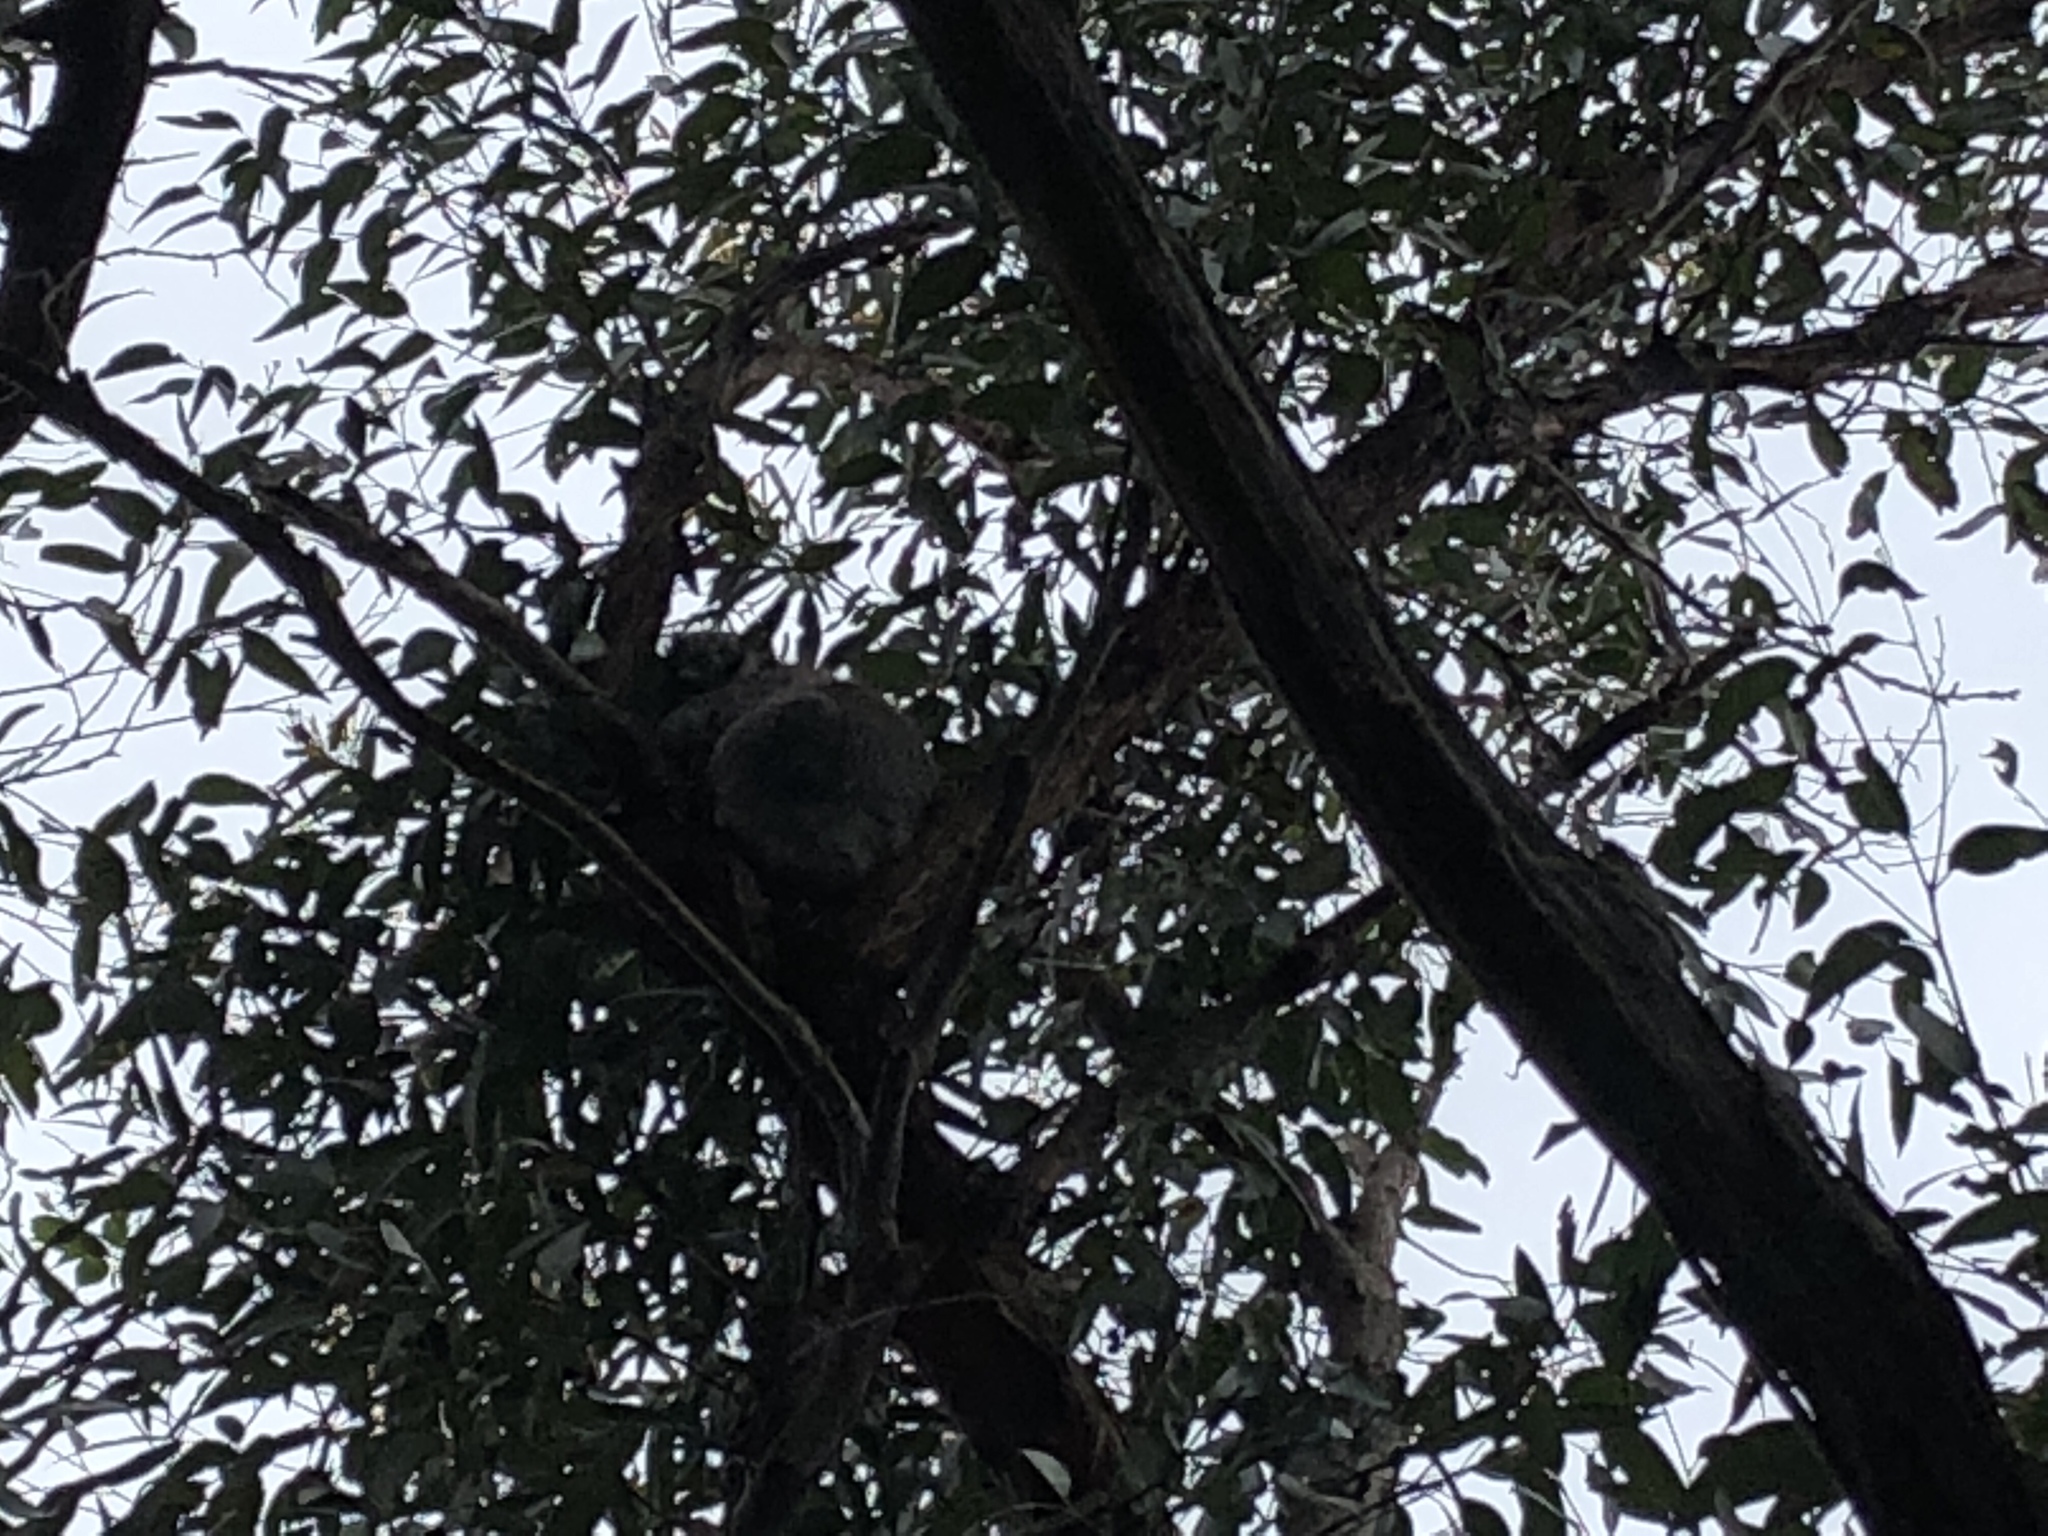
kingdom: Animalia
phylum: Chordata
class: Mammalia
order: Diprotodontia
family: Phascolarctidae
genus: Phascolarctos
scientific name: Phascolarctos cinereus
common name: Koala
